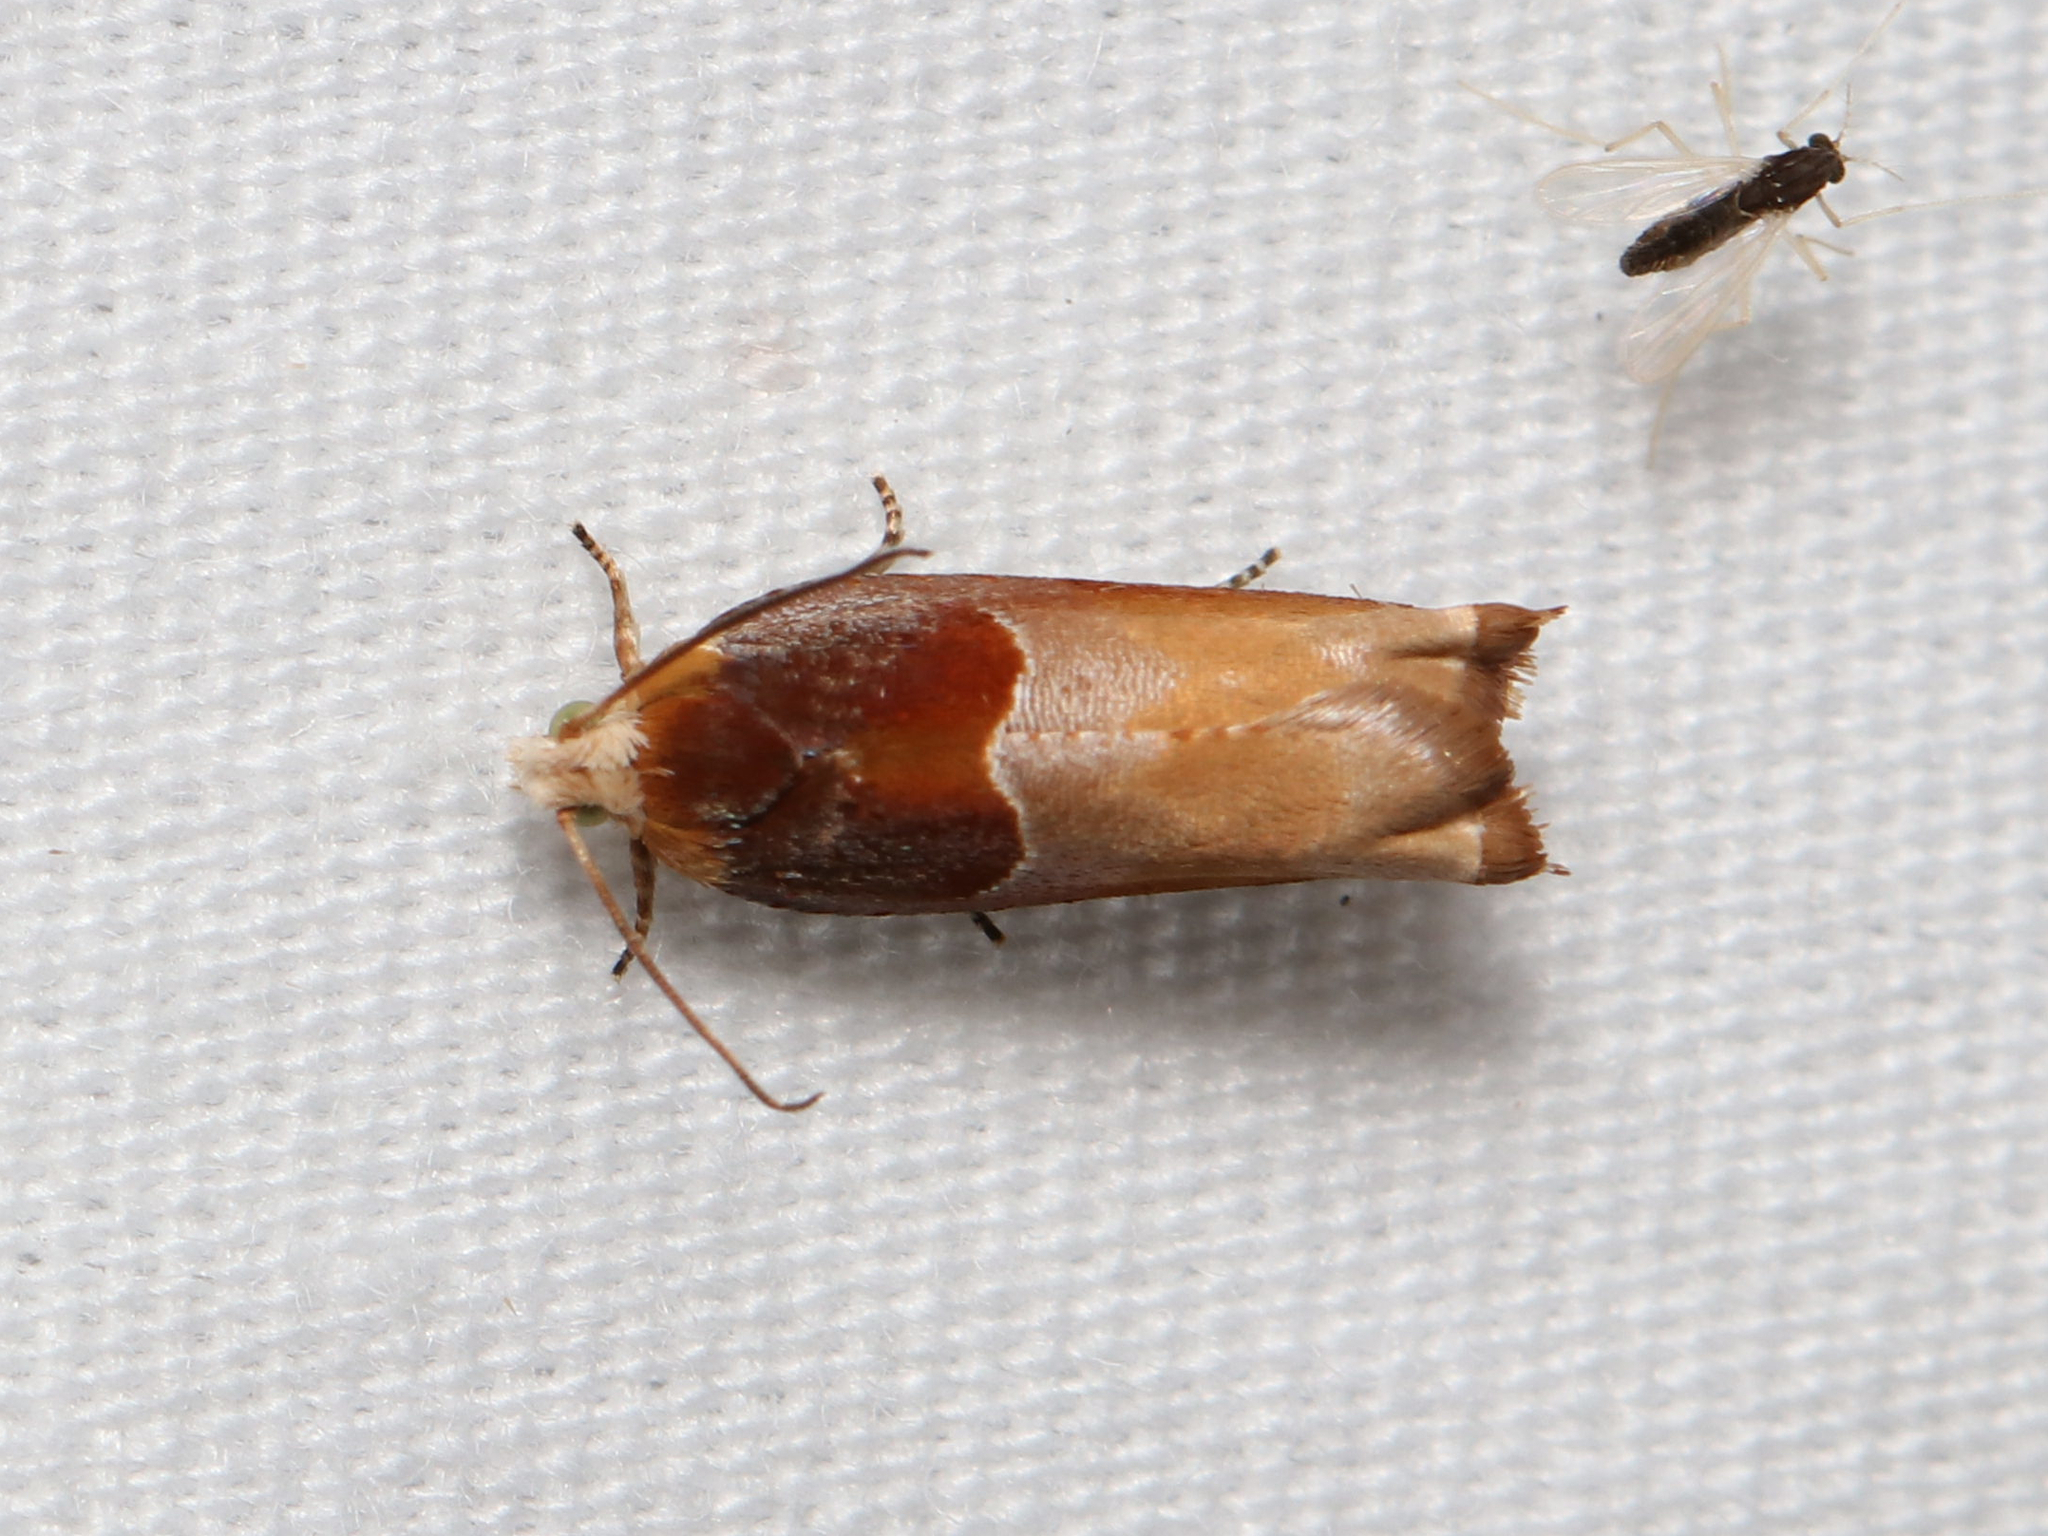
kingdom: Animalia
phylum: Arthropoda
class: Insecta
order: Lepidoptera
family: Tortricidae
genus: Ancylis
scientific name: Ancylis divisana
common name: Two-toned ancylis moth
